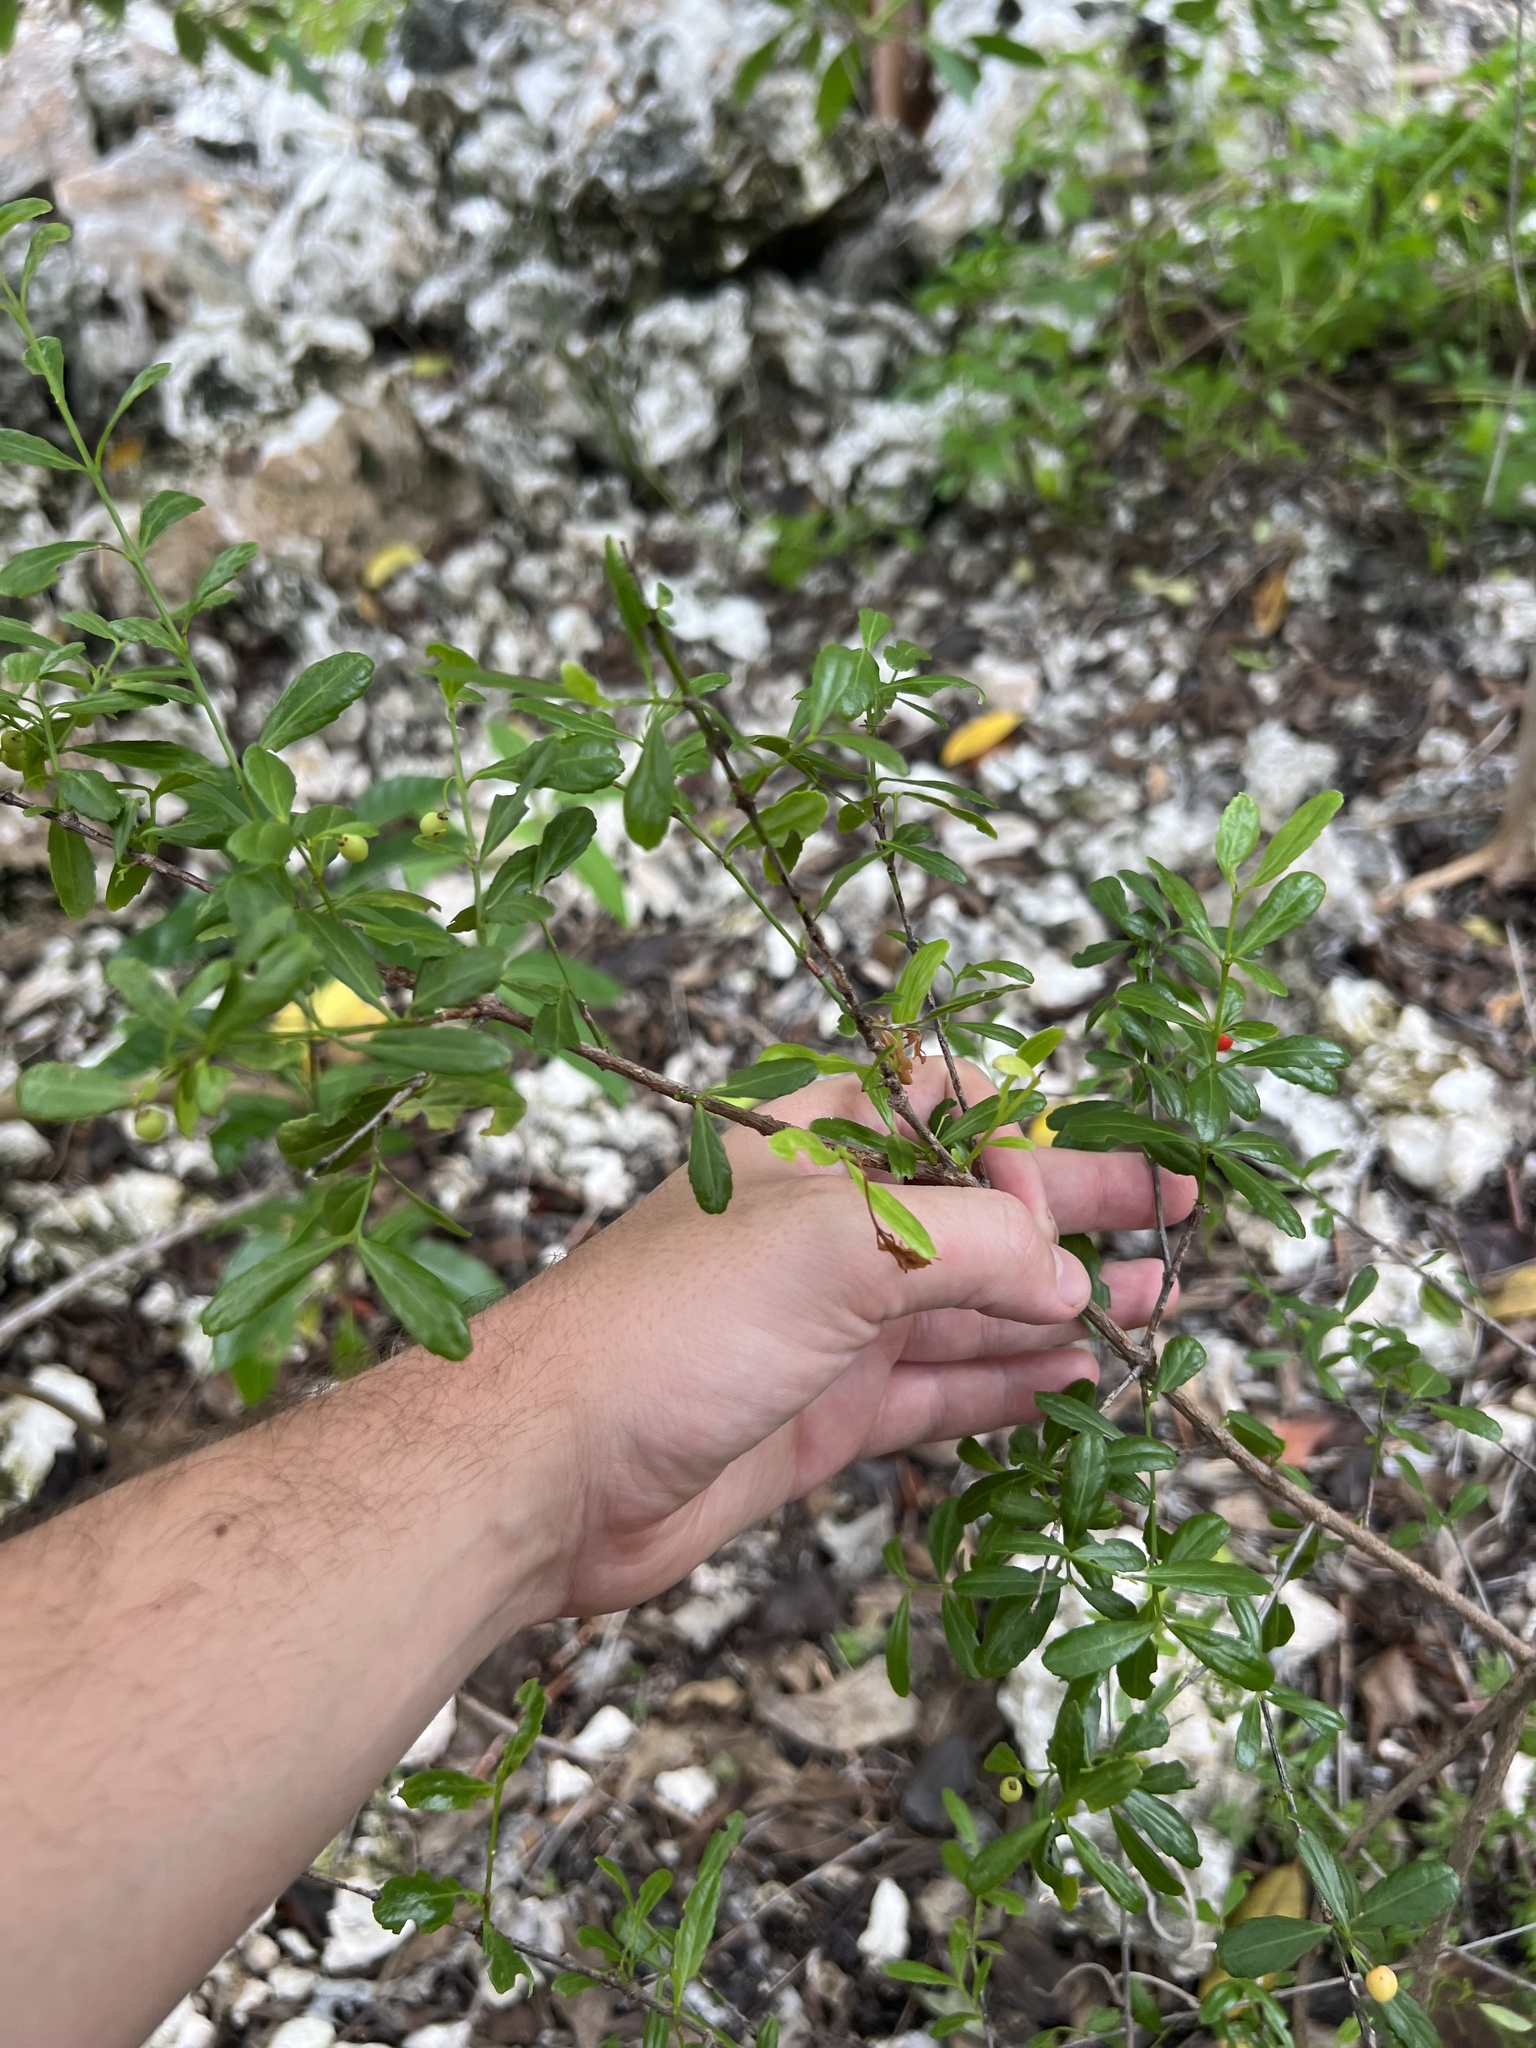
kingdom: Plantae
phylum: Tracheophyta
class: Magnoliopsida
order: Celastrales
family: Celastraceae
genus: Crossopetalum
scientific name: Crossopetalum rhacoma
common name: Maidenberry
